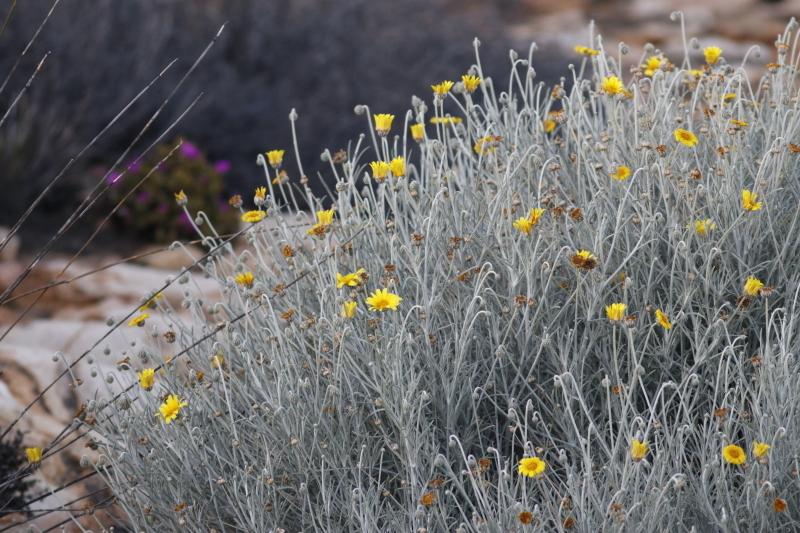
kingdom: Plantae
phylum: Tracheophyta
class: Magnoliopsida
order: Asterales
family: Asteraceae
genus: Arctotis
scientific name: Arctotis argentea
